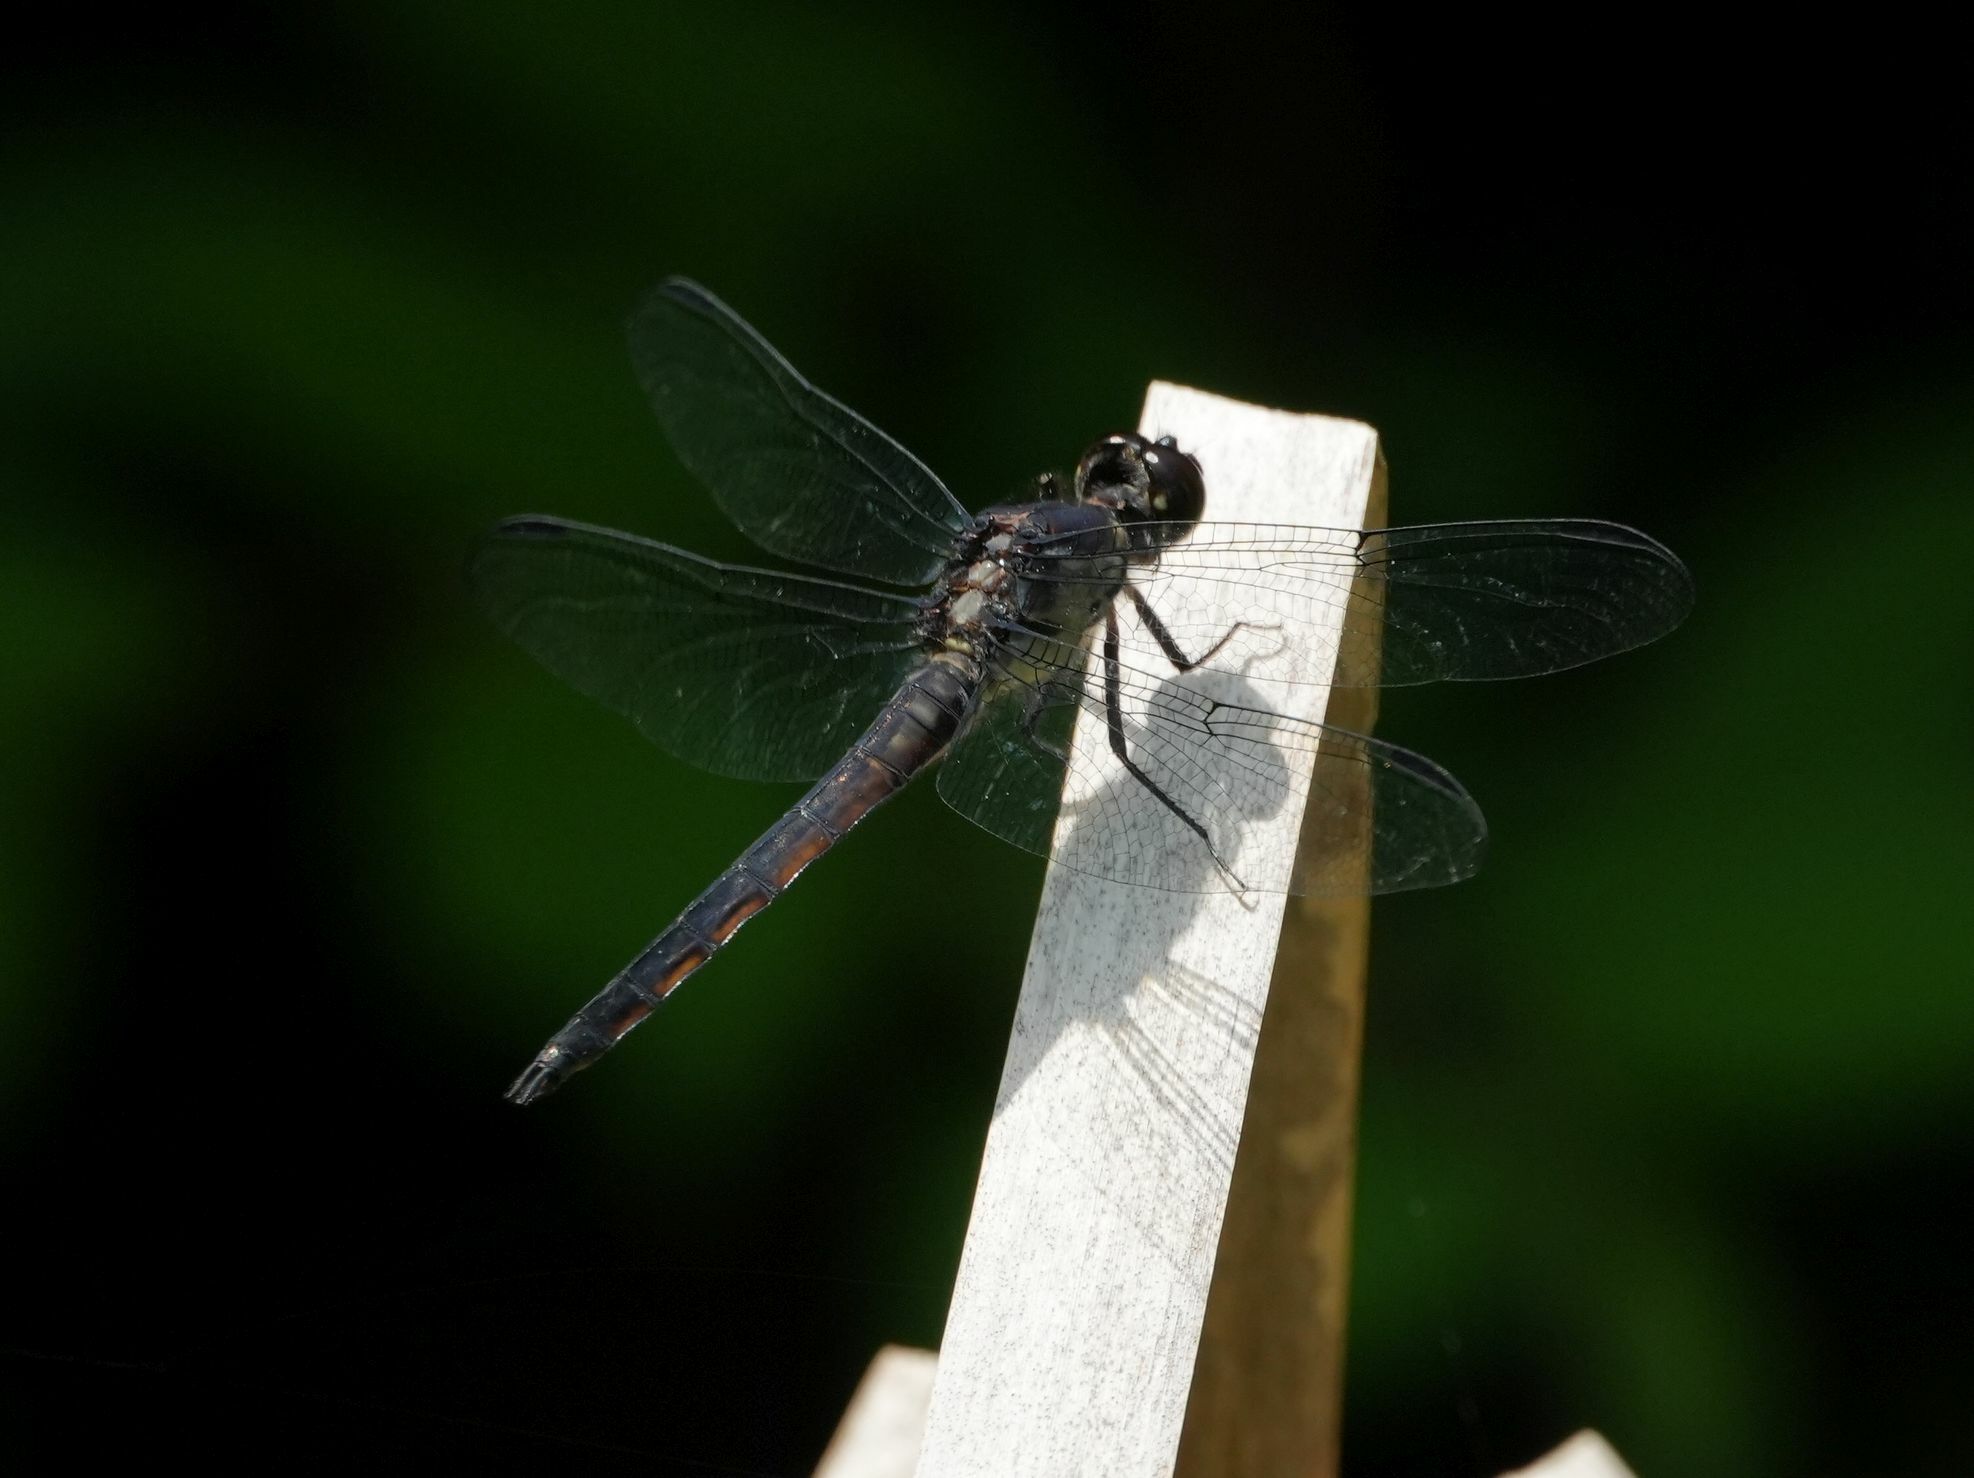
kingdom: Animalia
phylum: Arthropoda
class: Insecta
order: Odonata
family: Libellulidae
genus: Libellula
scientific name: Libellula incesta
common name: Slaty skimmer
